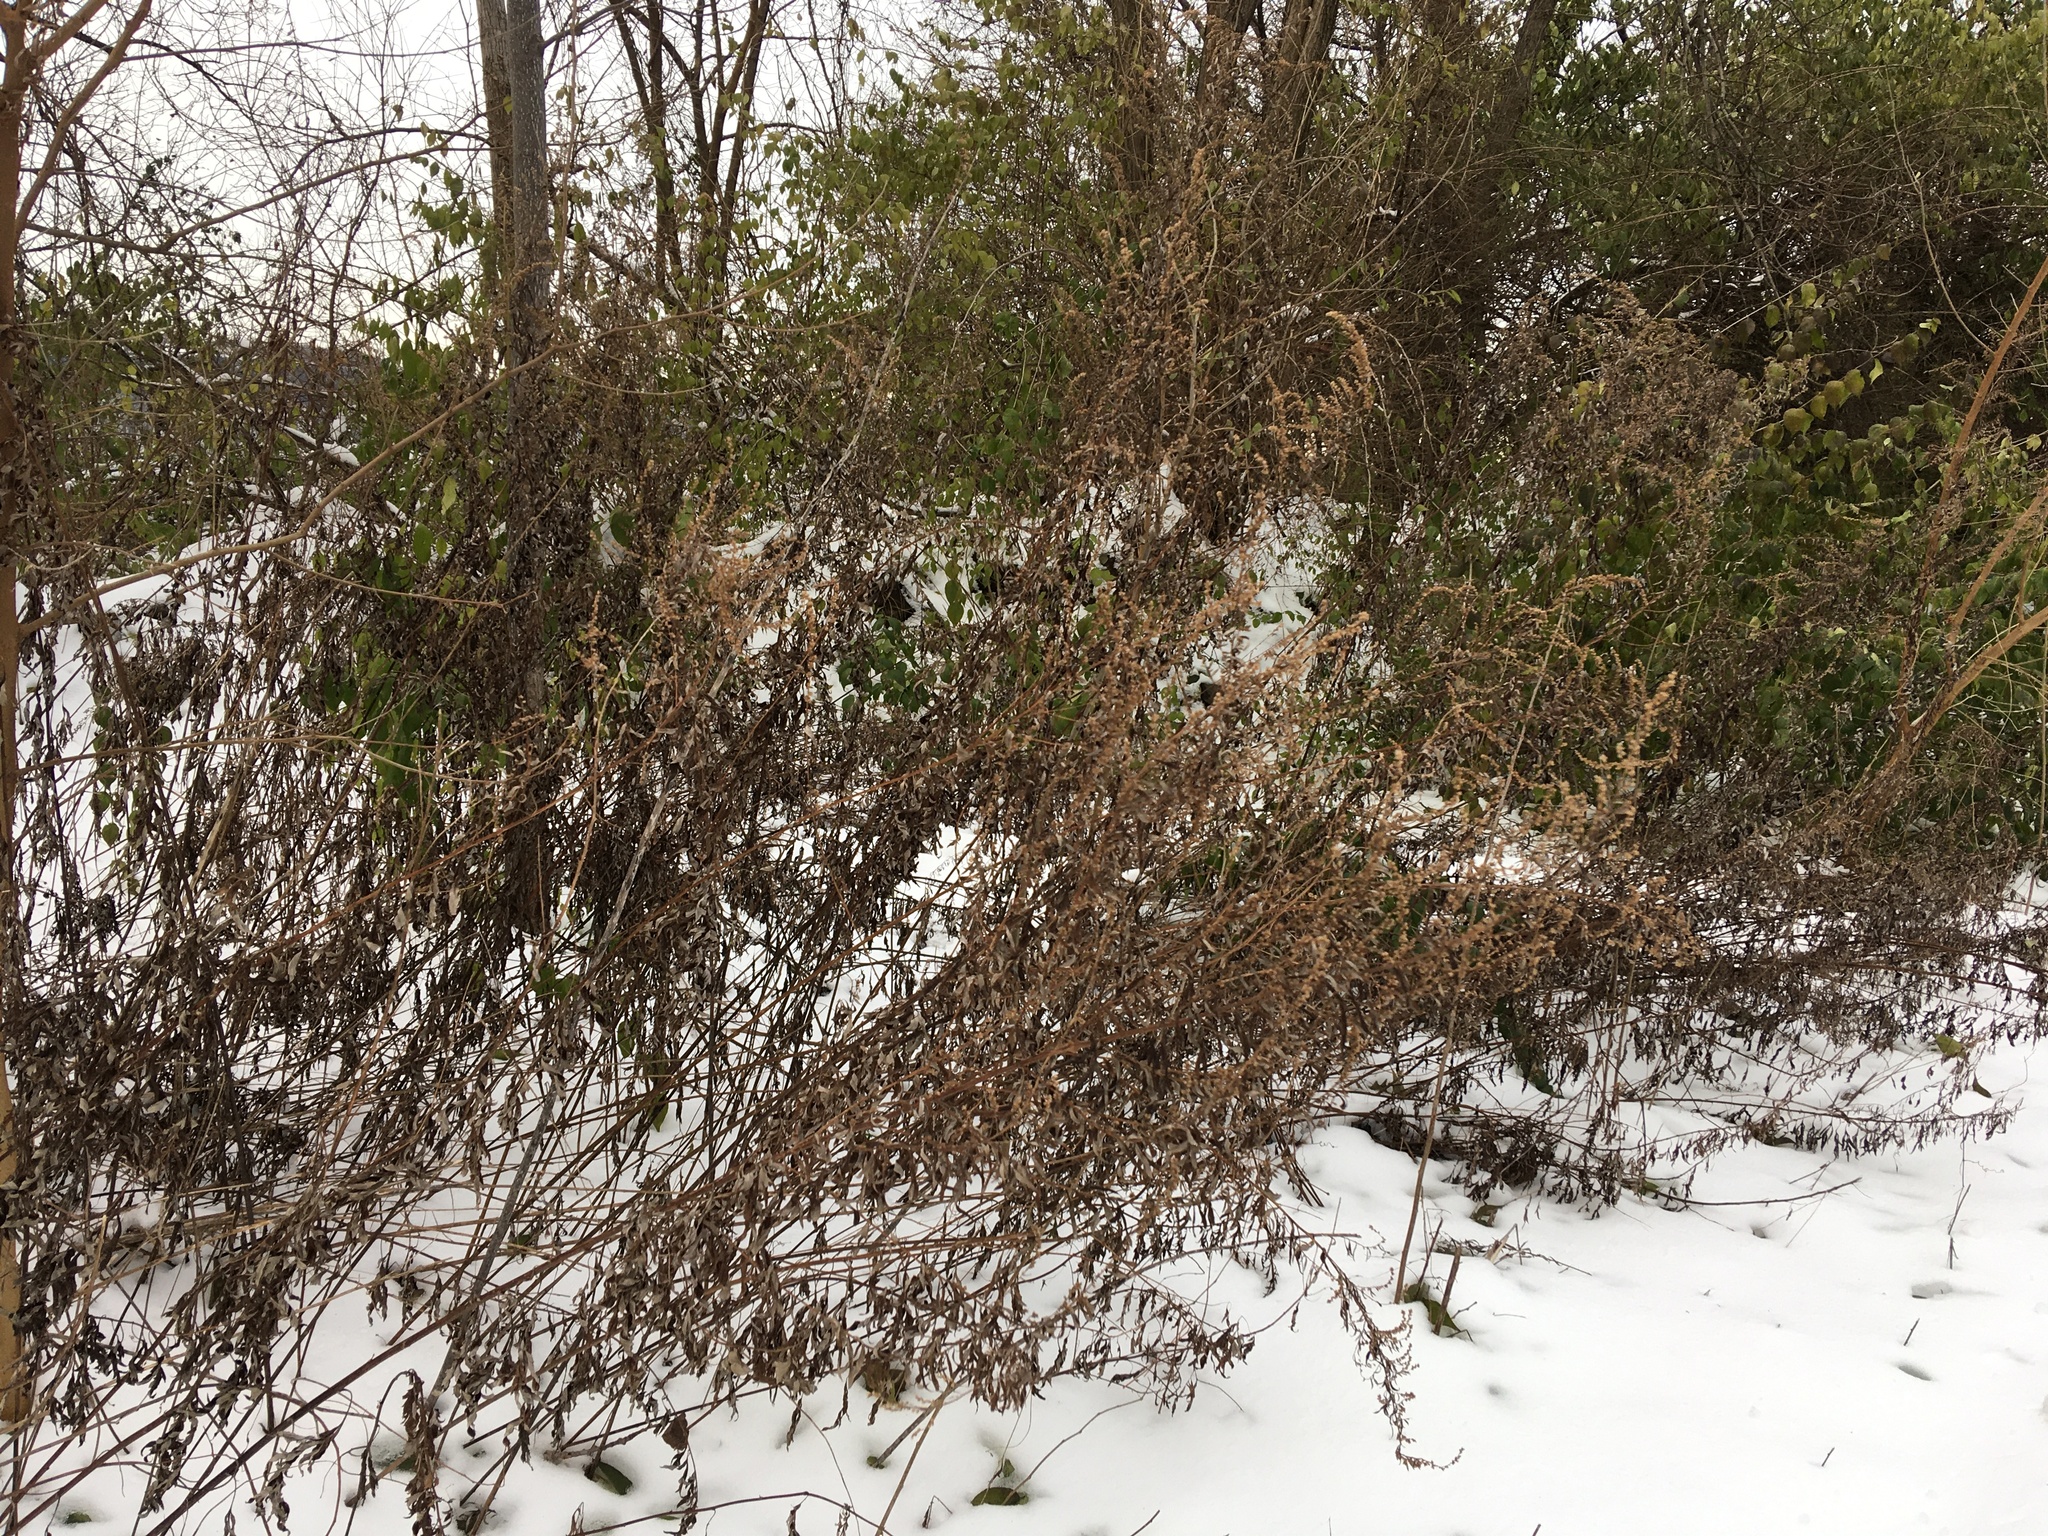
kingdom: Plantae
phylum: Tracheophyta
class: Magnoliopsida
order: Asterales
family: Asteraceae
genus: Artemisia
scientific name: Artemisia vulgaris
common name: Mugwort
